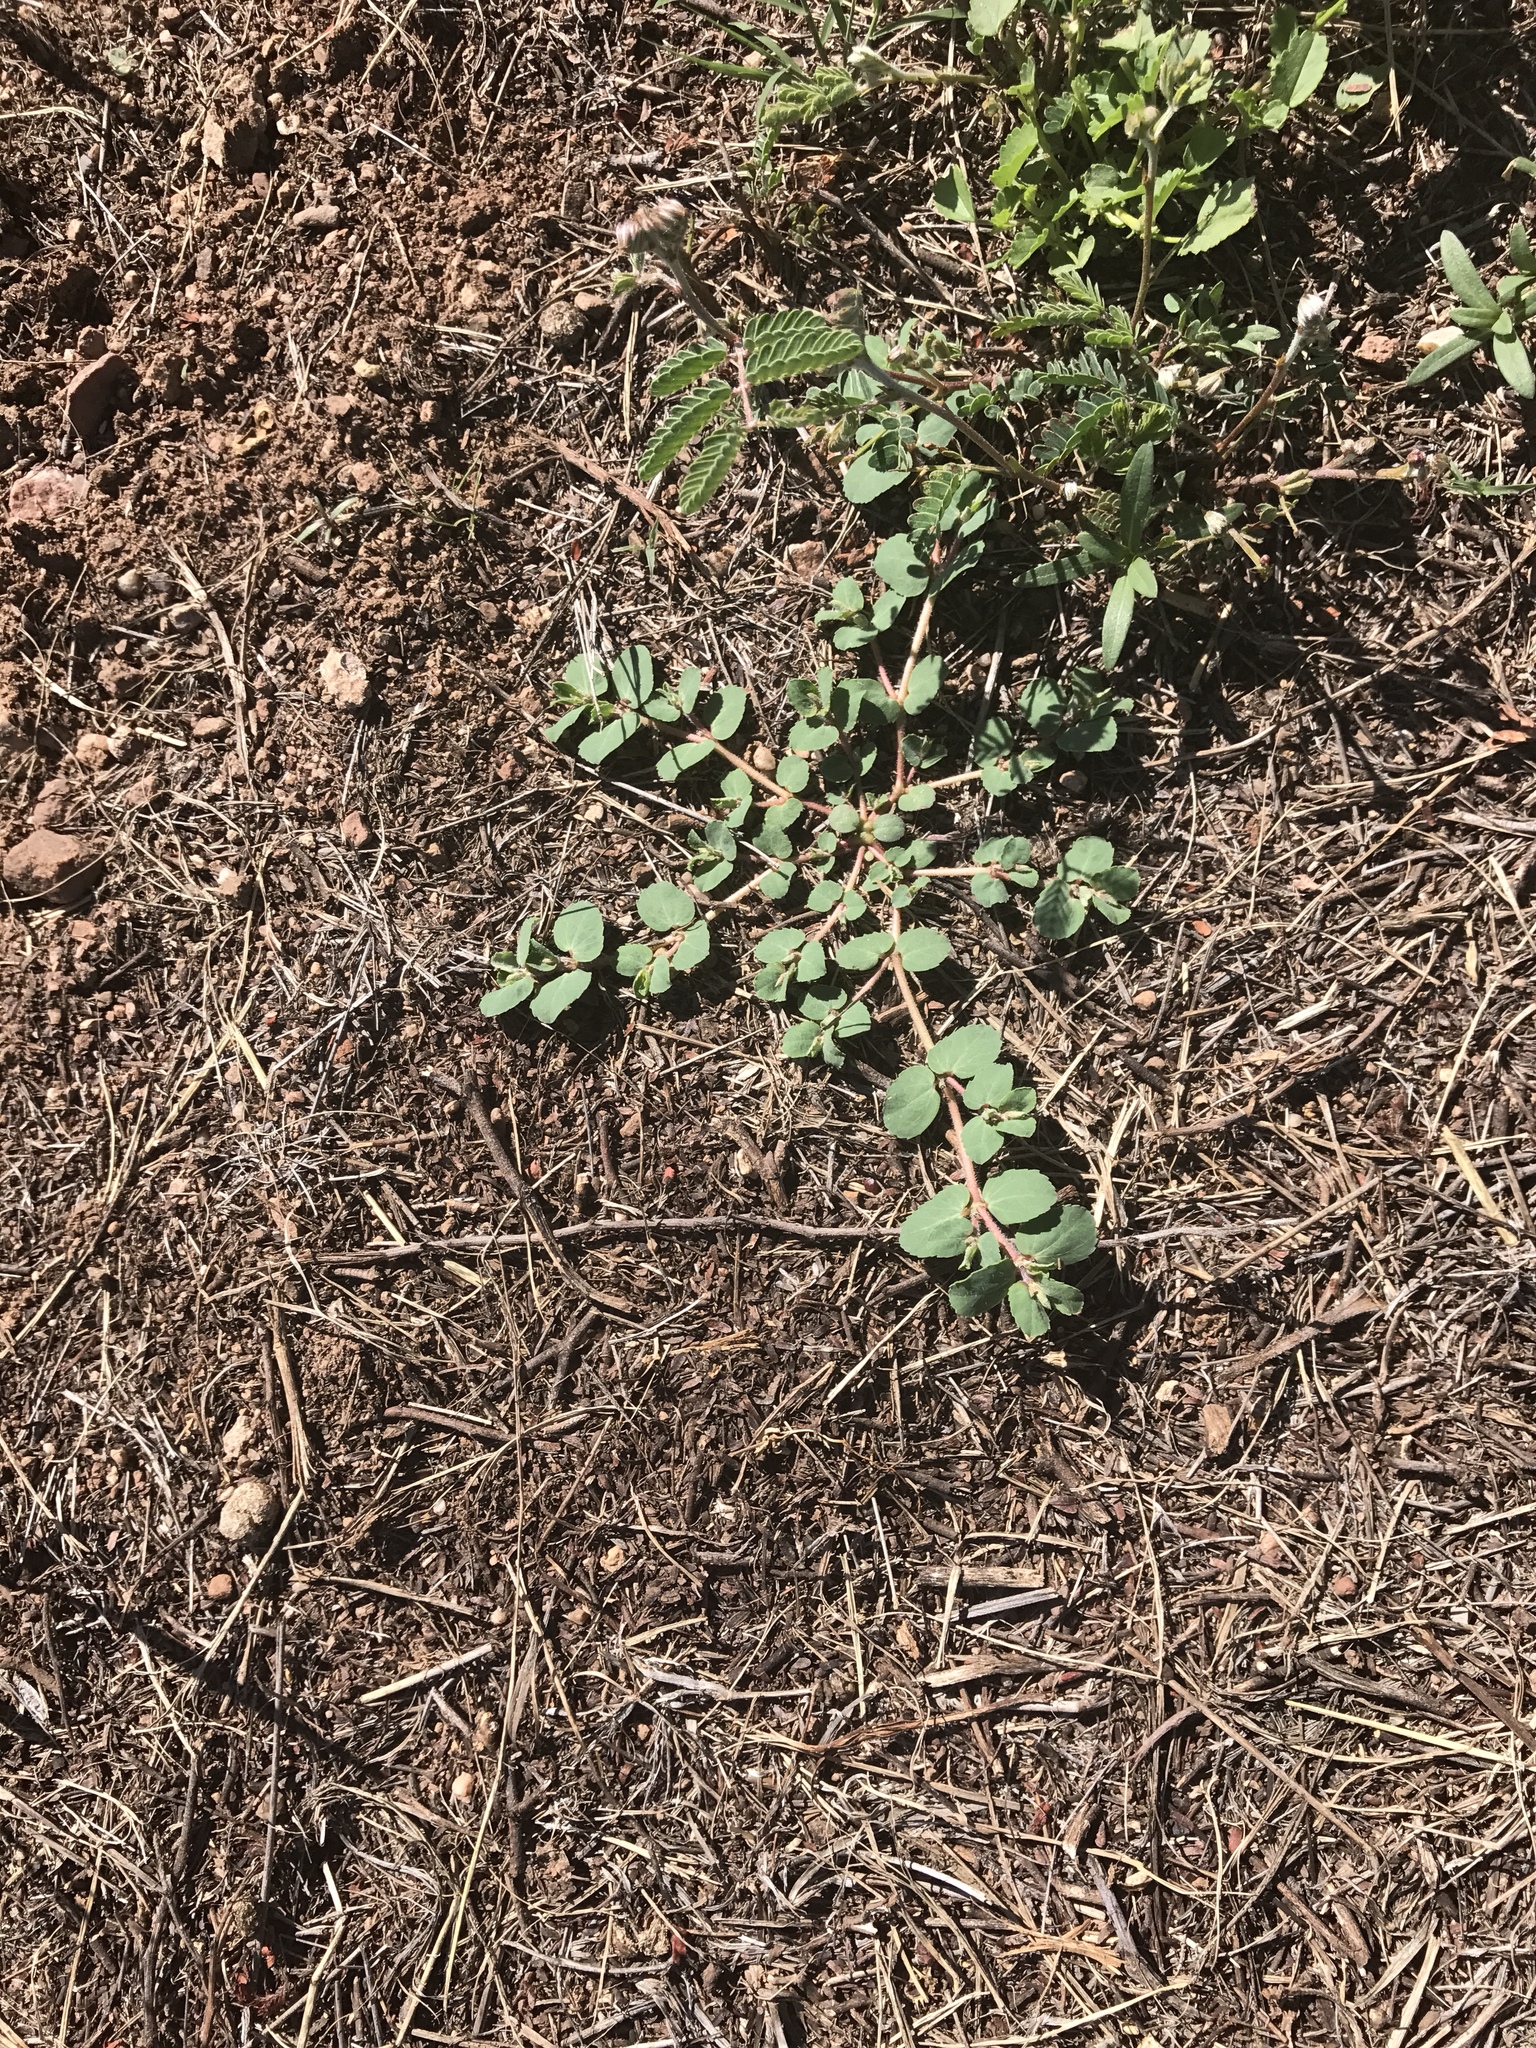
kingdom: Plantae
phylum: Tracheophyta
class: Magnoliopsida
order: Malpighiales
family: Euphorbiaceae
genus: Euphorbia
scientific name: Euphorbia stictospora
